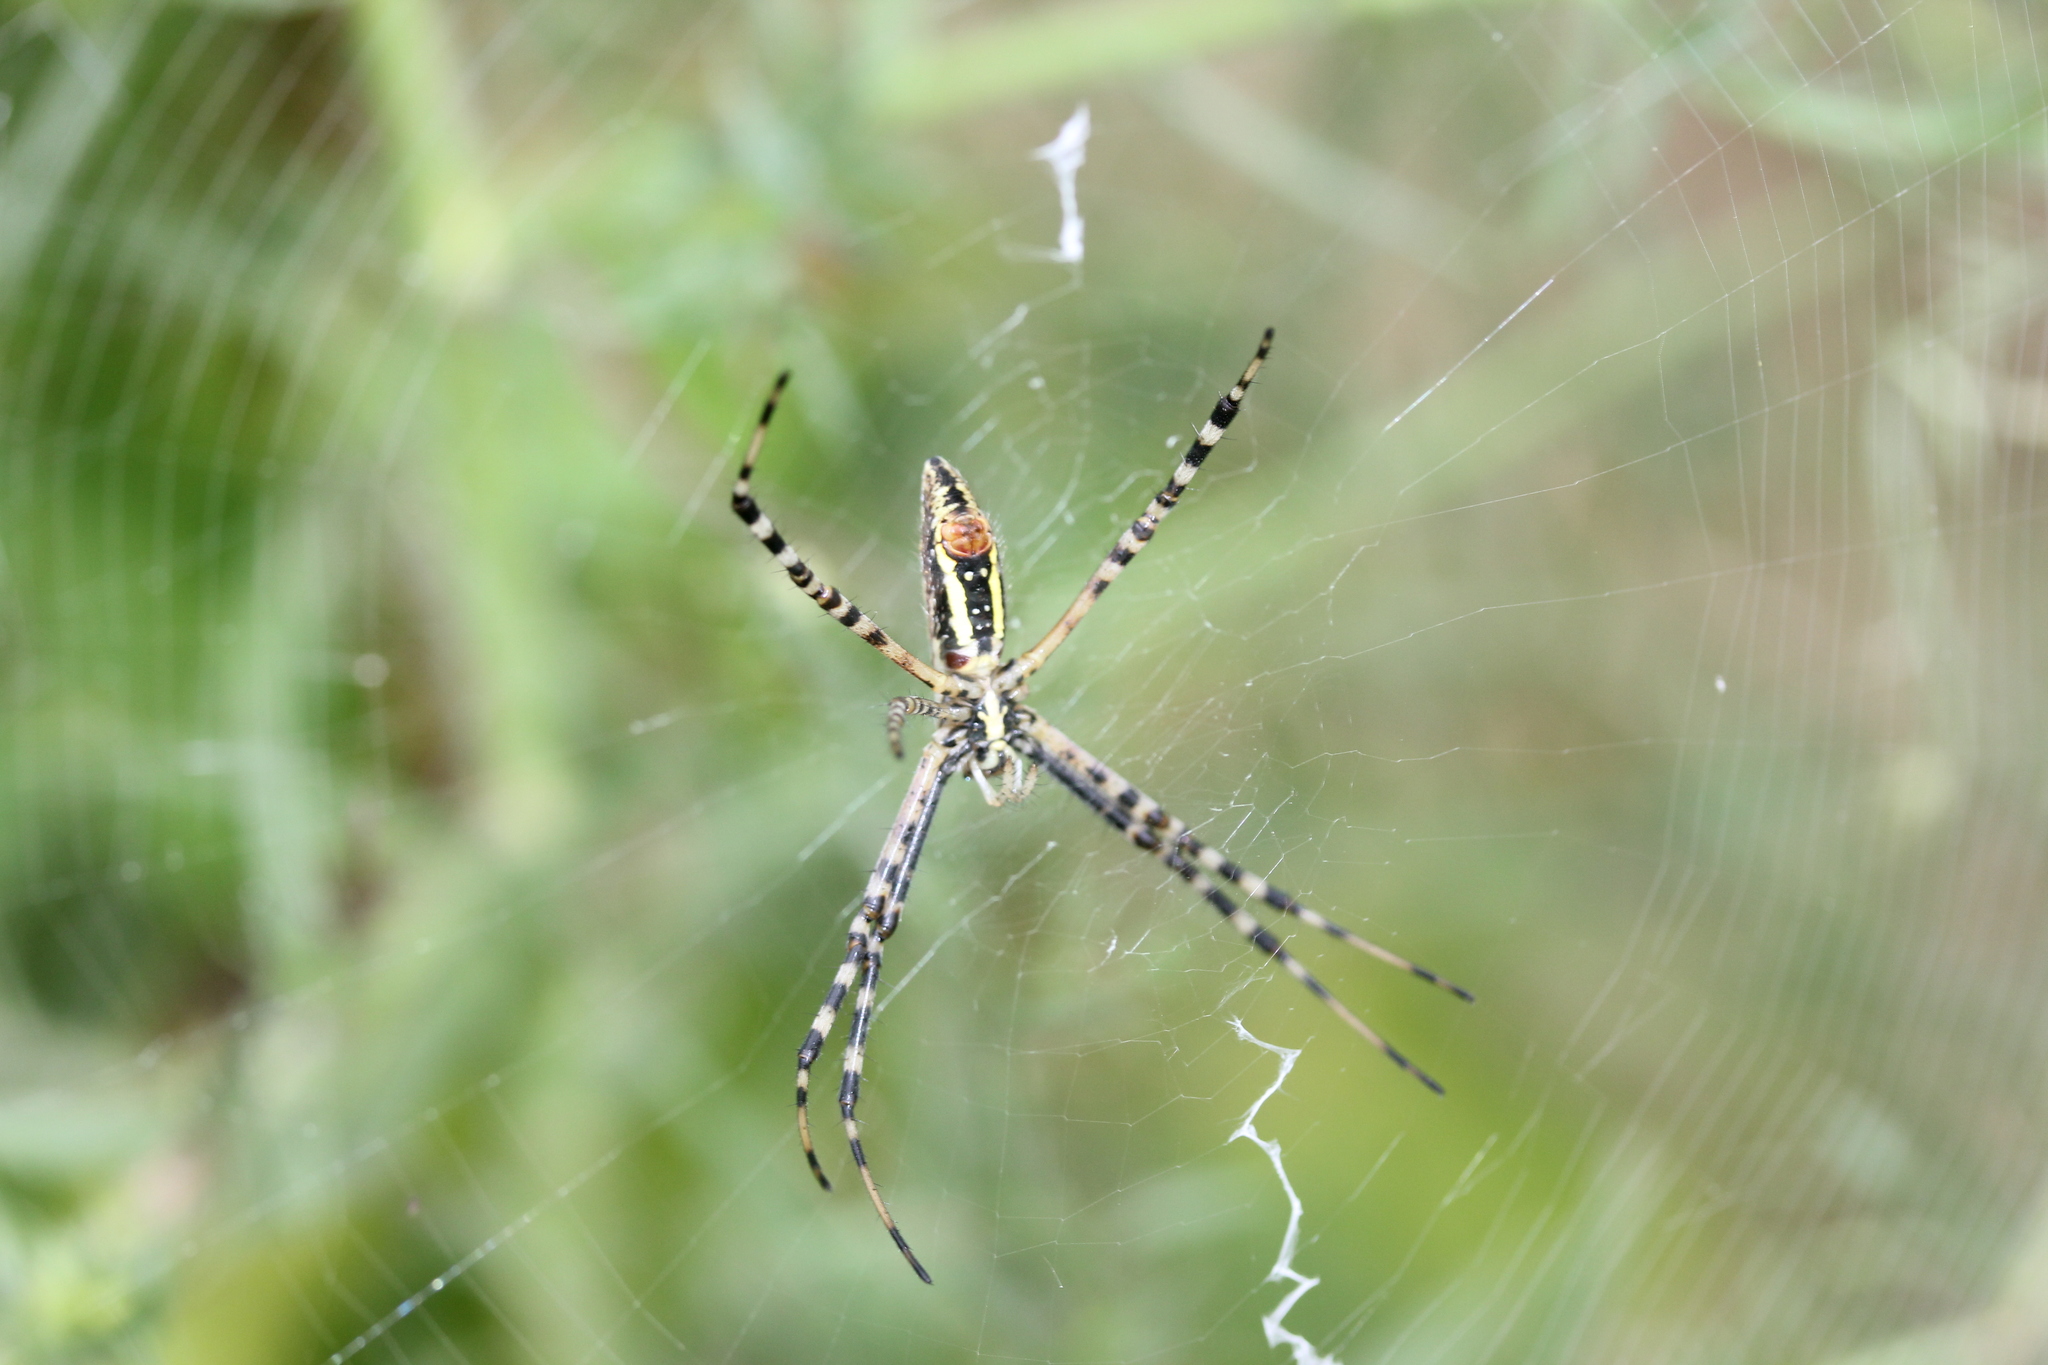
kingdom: Animalia
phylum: Arthropoda
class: Arachnida
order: Araneae
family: Araneidae
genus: Argiope
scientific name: Argiope trifasciata
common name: Banded garden spider
